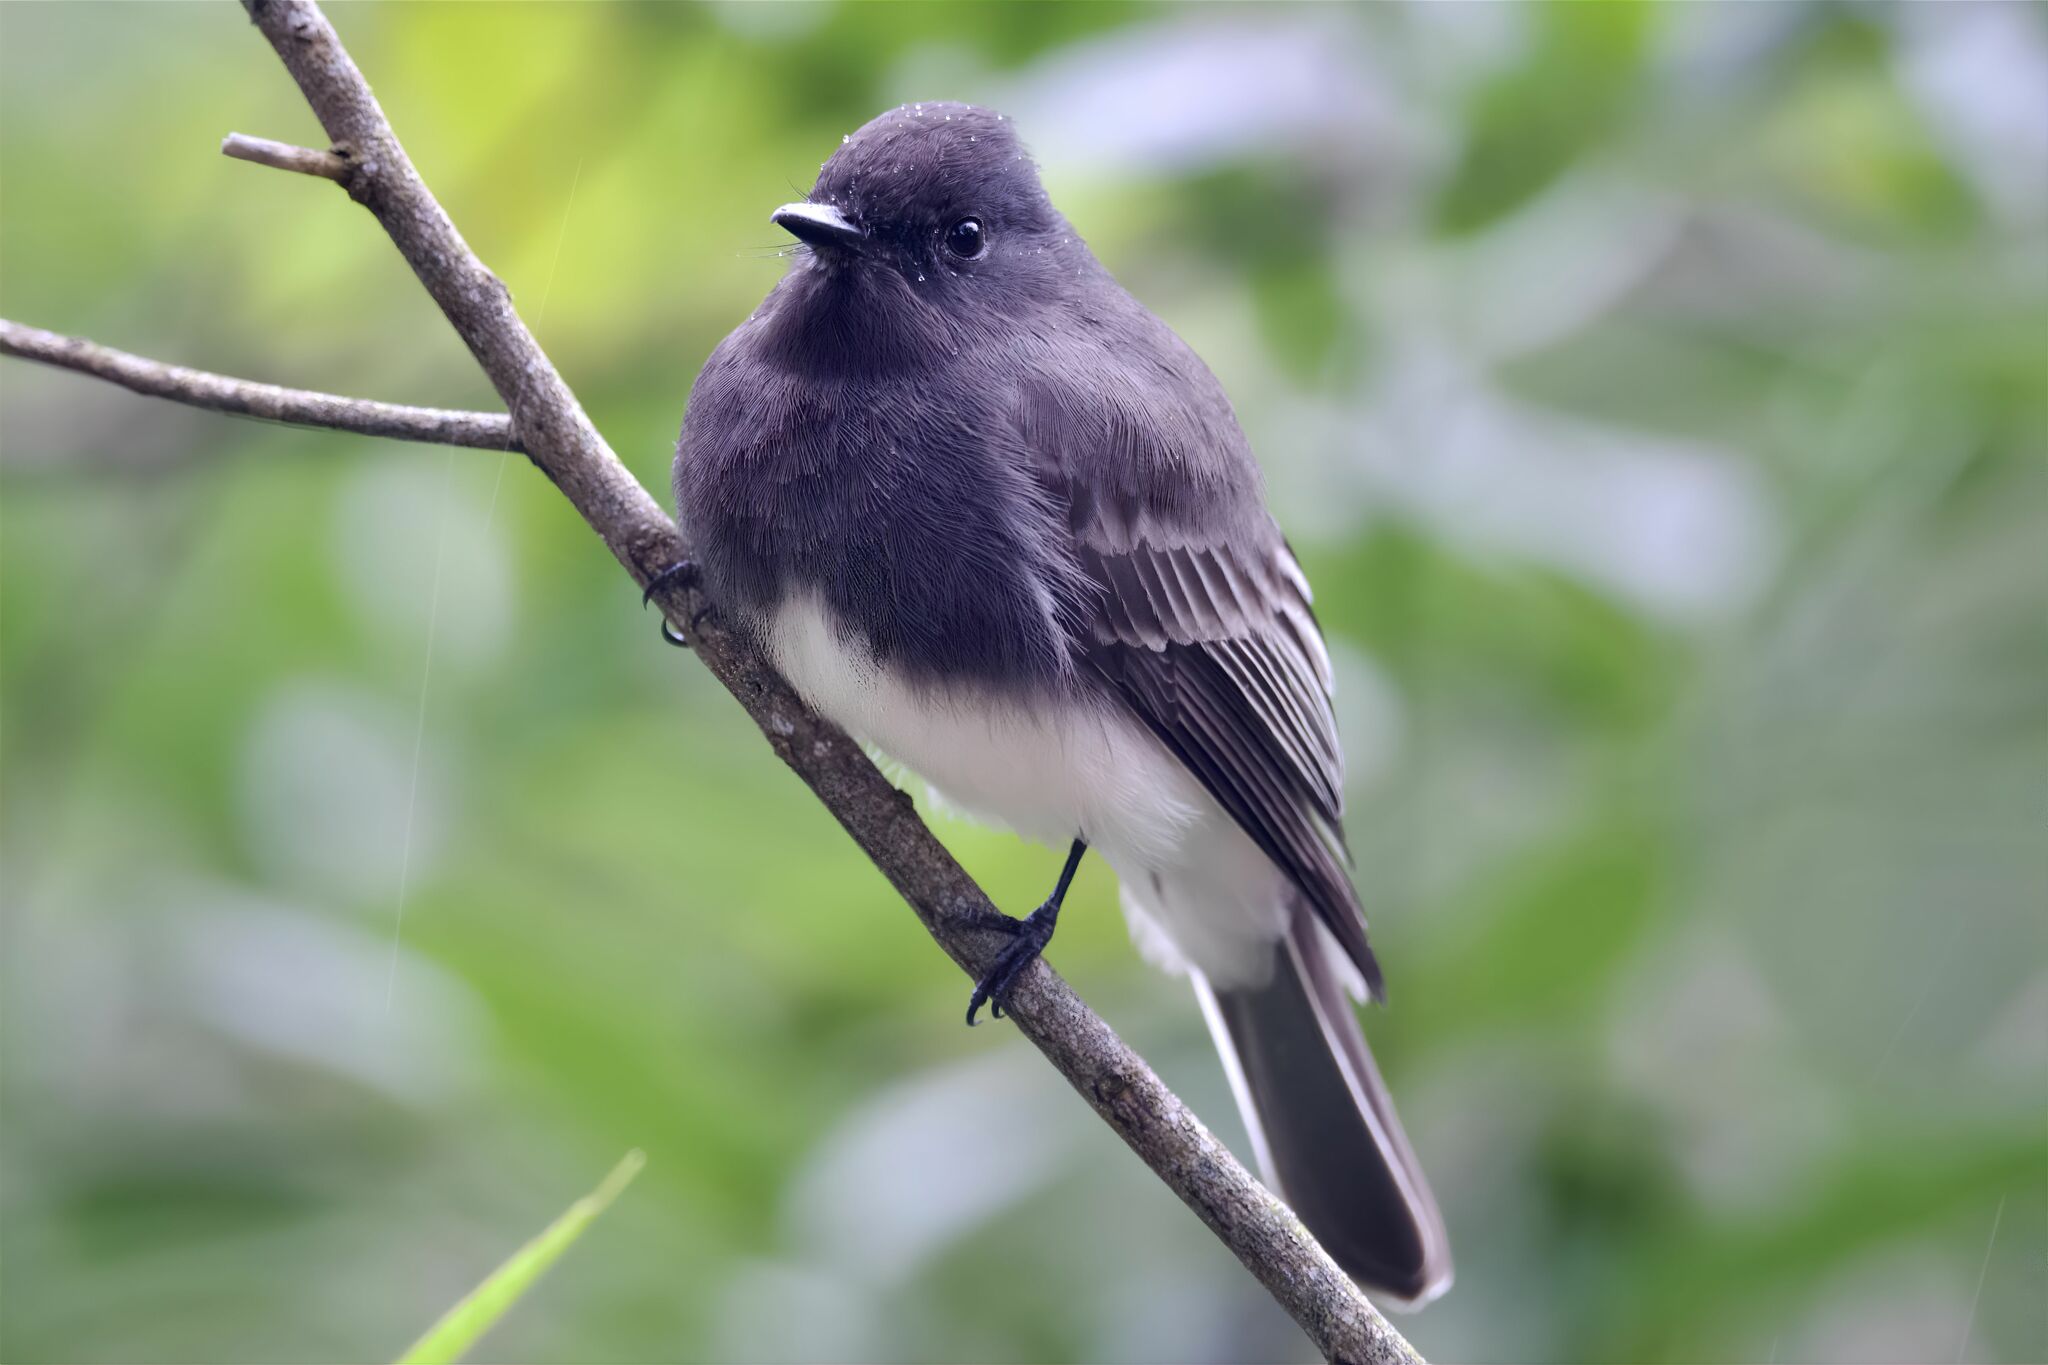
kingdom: Animalia
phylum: Chordata
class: Aves
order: Passeriformes
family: Tyrannidae
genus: Sayornis
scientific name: Sayornis nigricans
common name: Black phoebe
